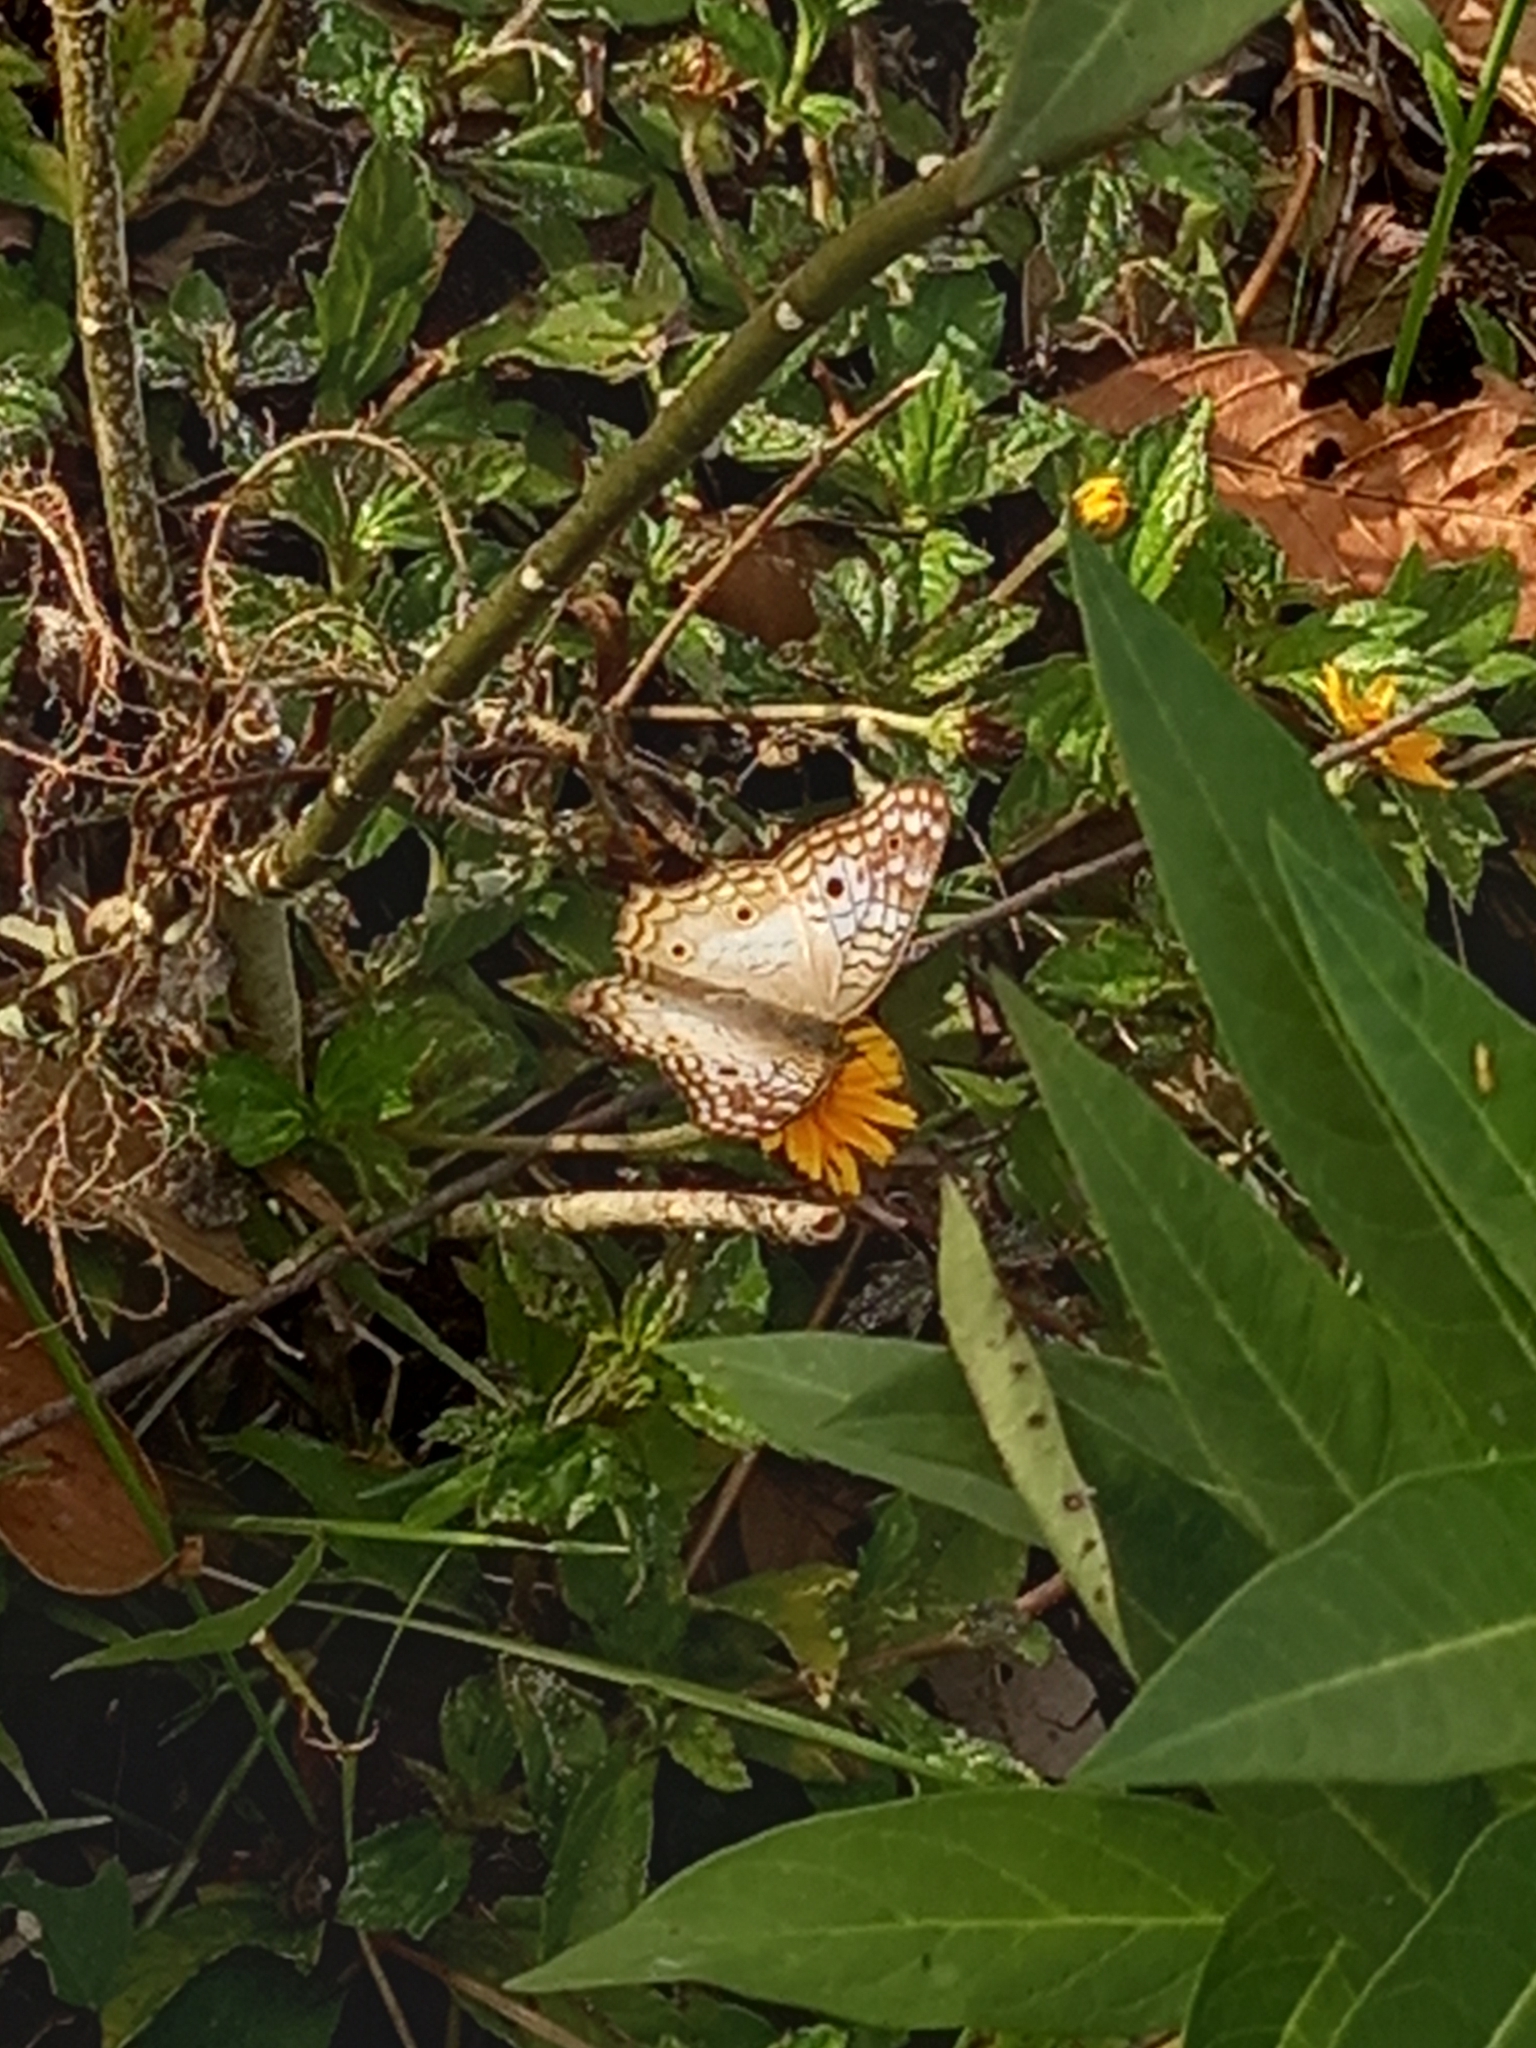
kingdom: Animalia
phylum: Arthropoda
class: Insecta
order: Lepidoptera
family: Nymphalidae
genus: Anartia
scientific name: Anartia jatrophae
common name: White peacock
